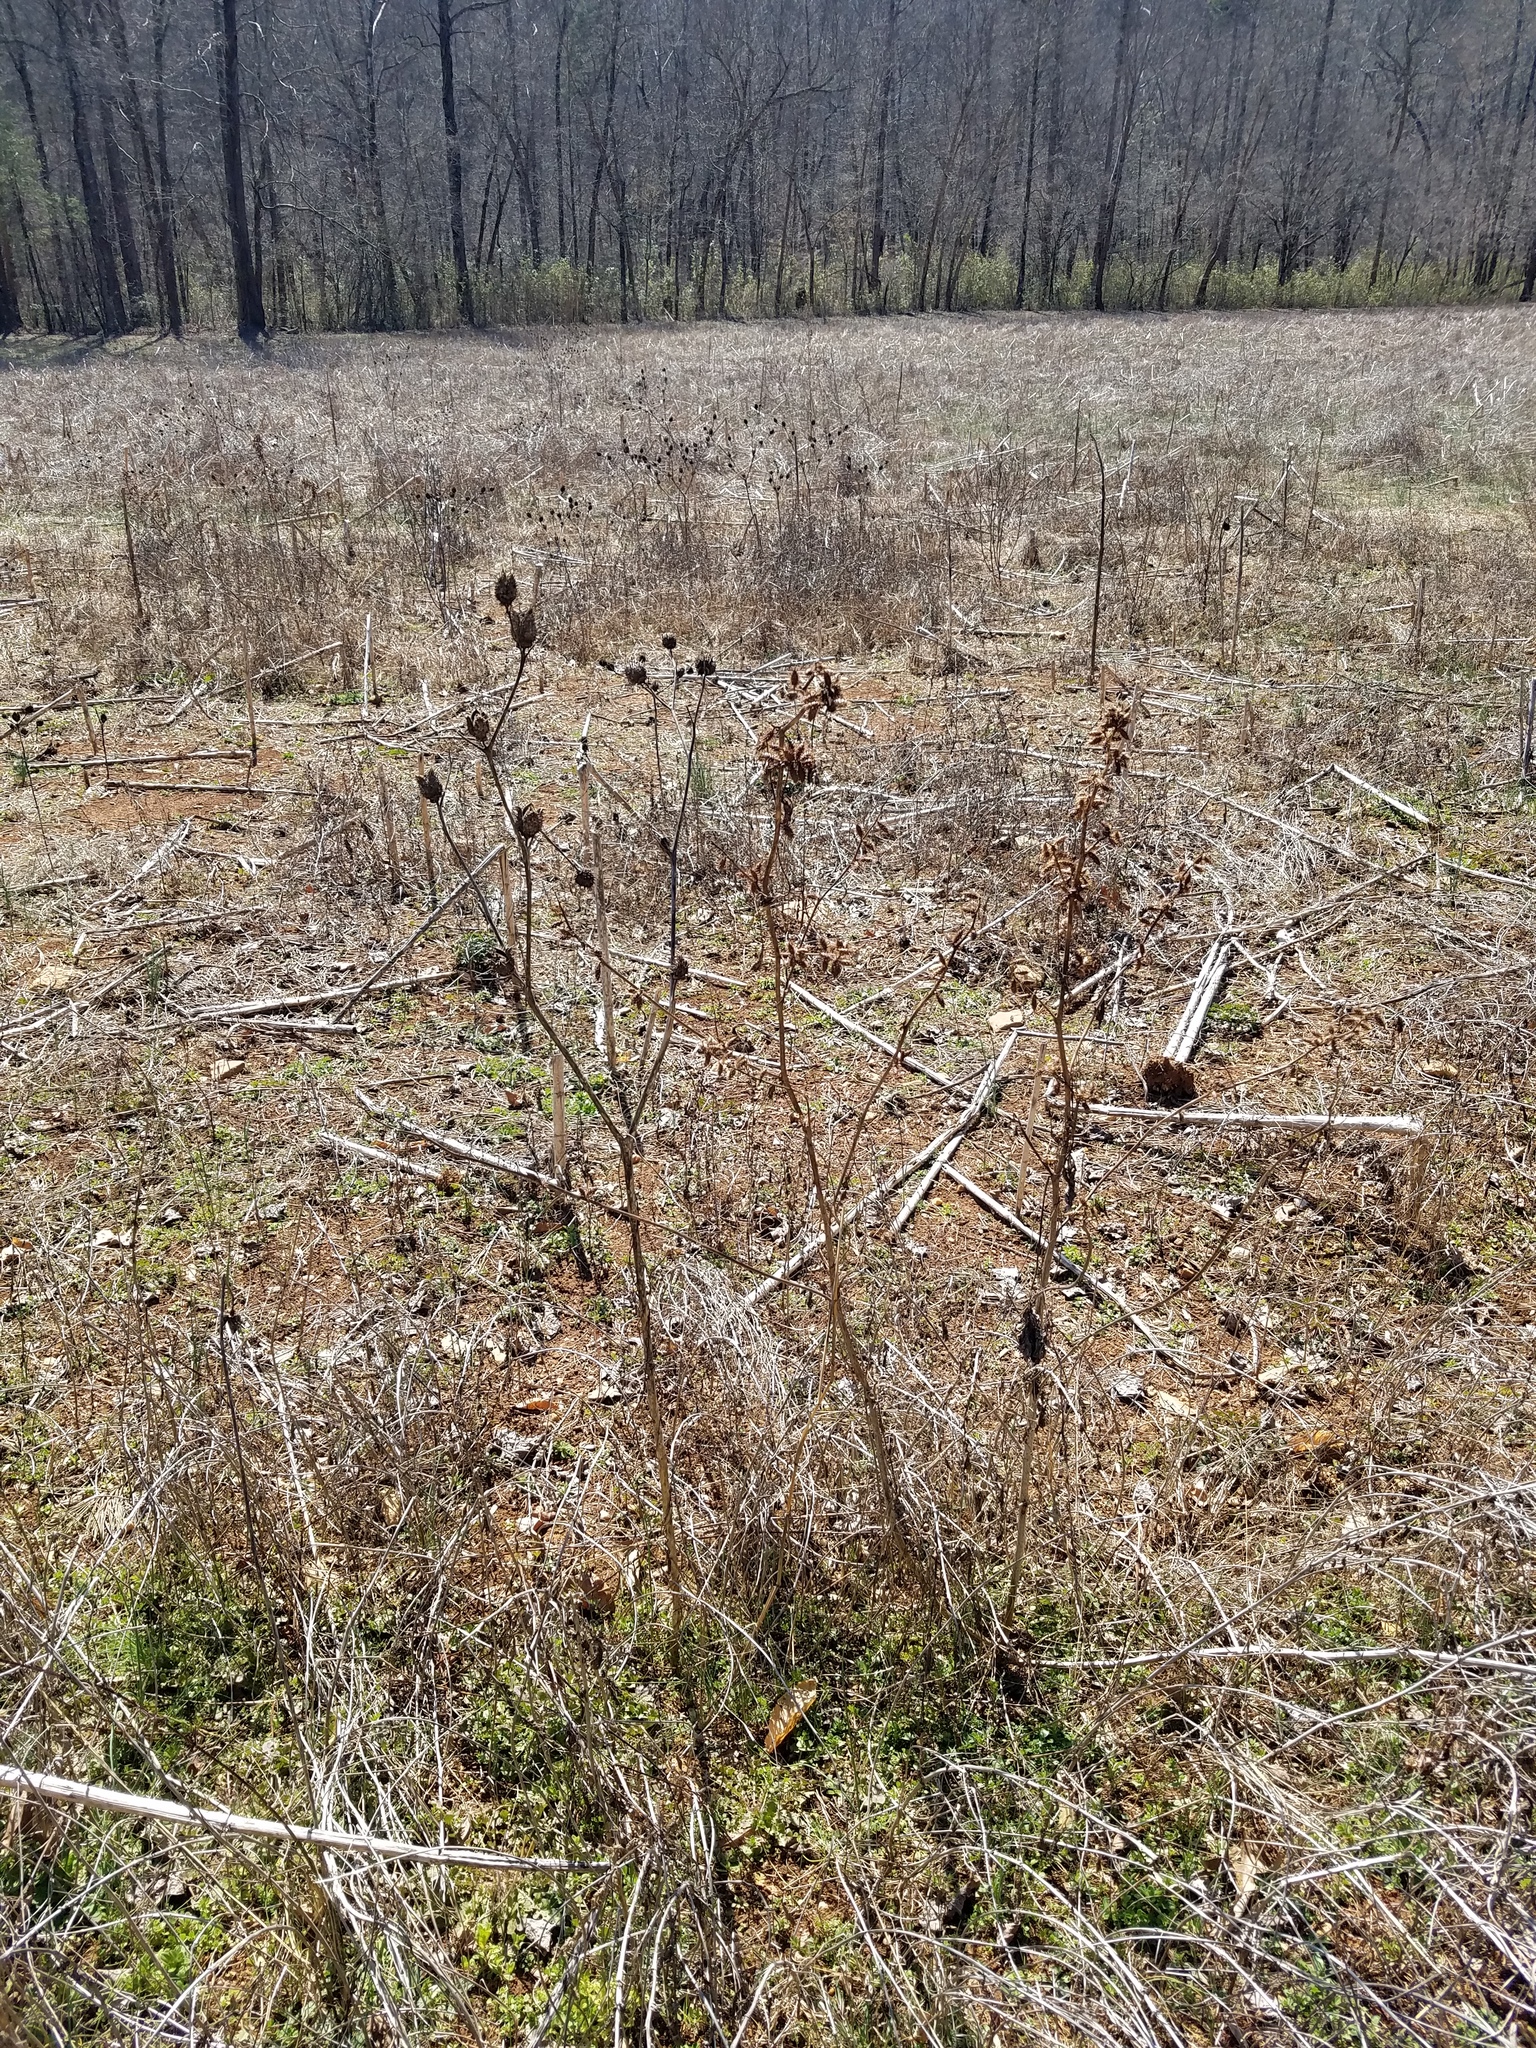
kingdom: Plantae
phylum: Tracheophyta
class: Magnoliopsida
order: Solanales
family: Solanaceae
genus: Datura
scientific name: Datura stramonium
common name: Thorn-apple
